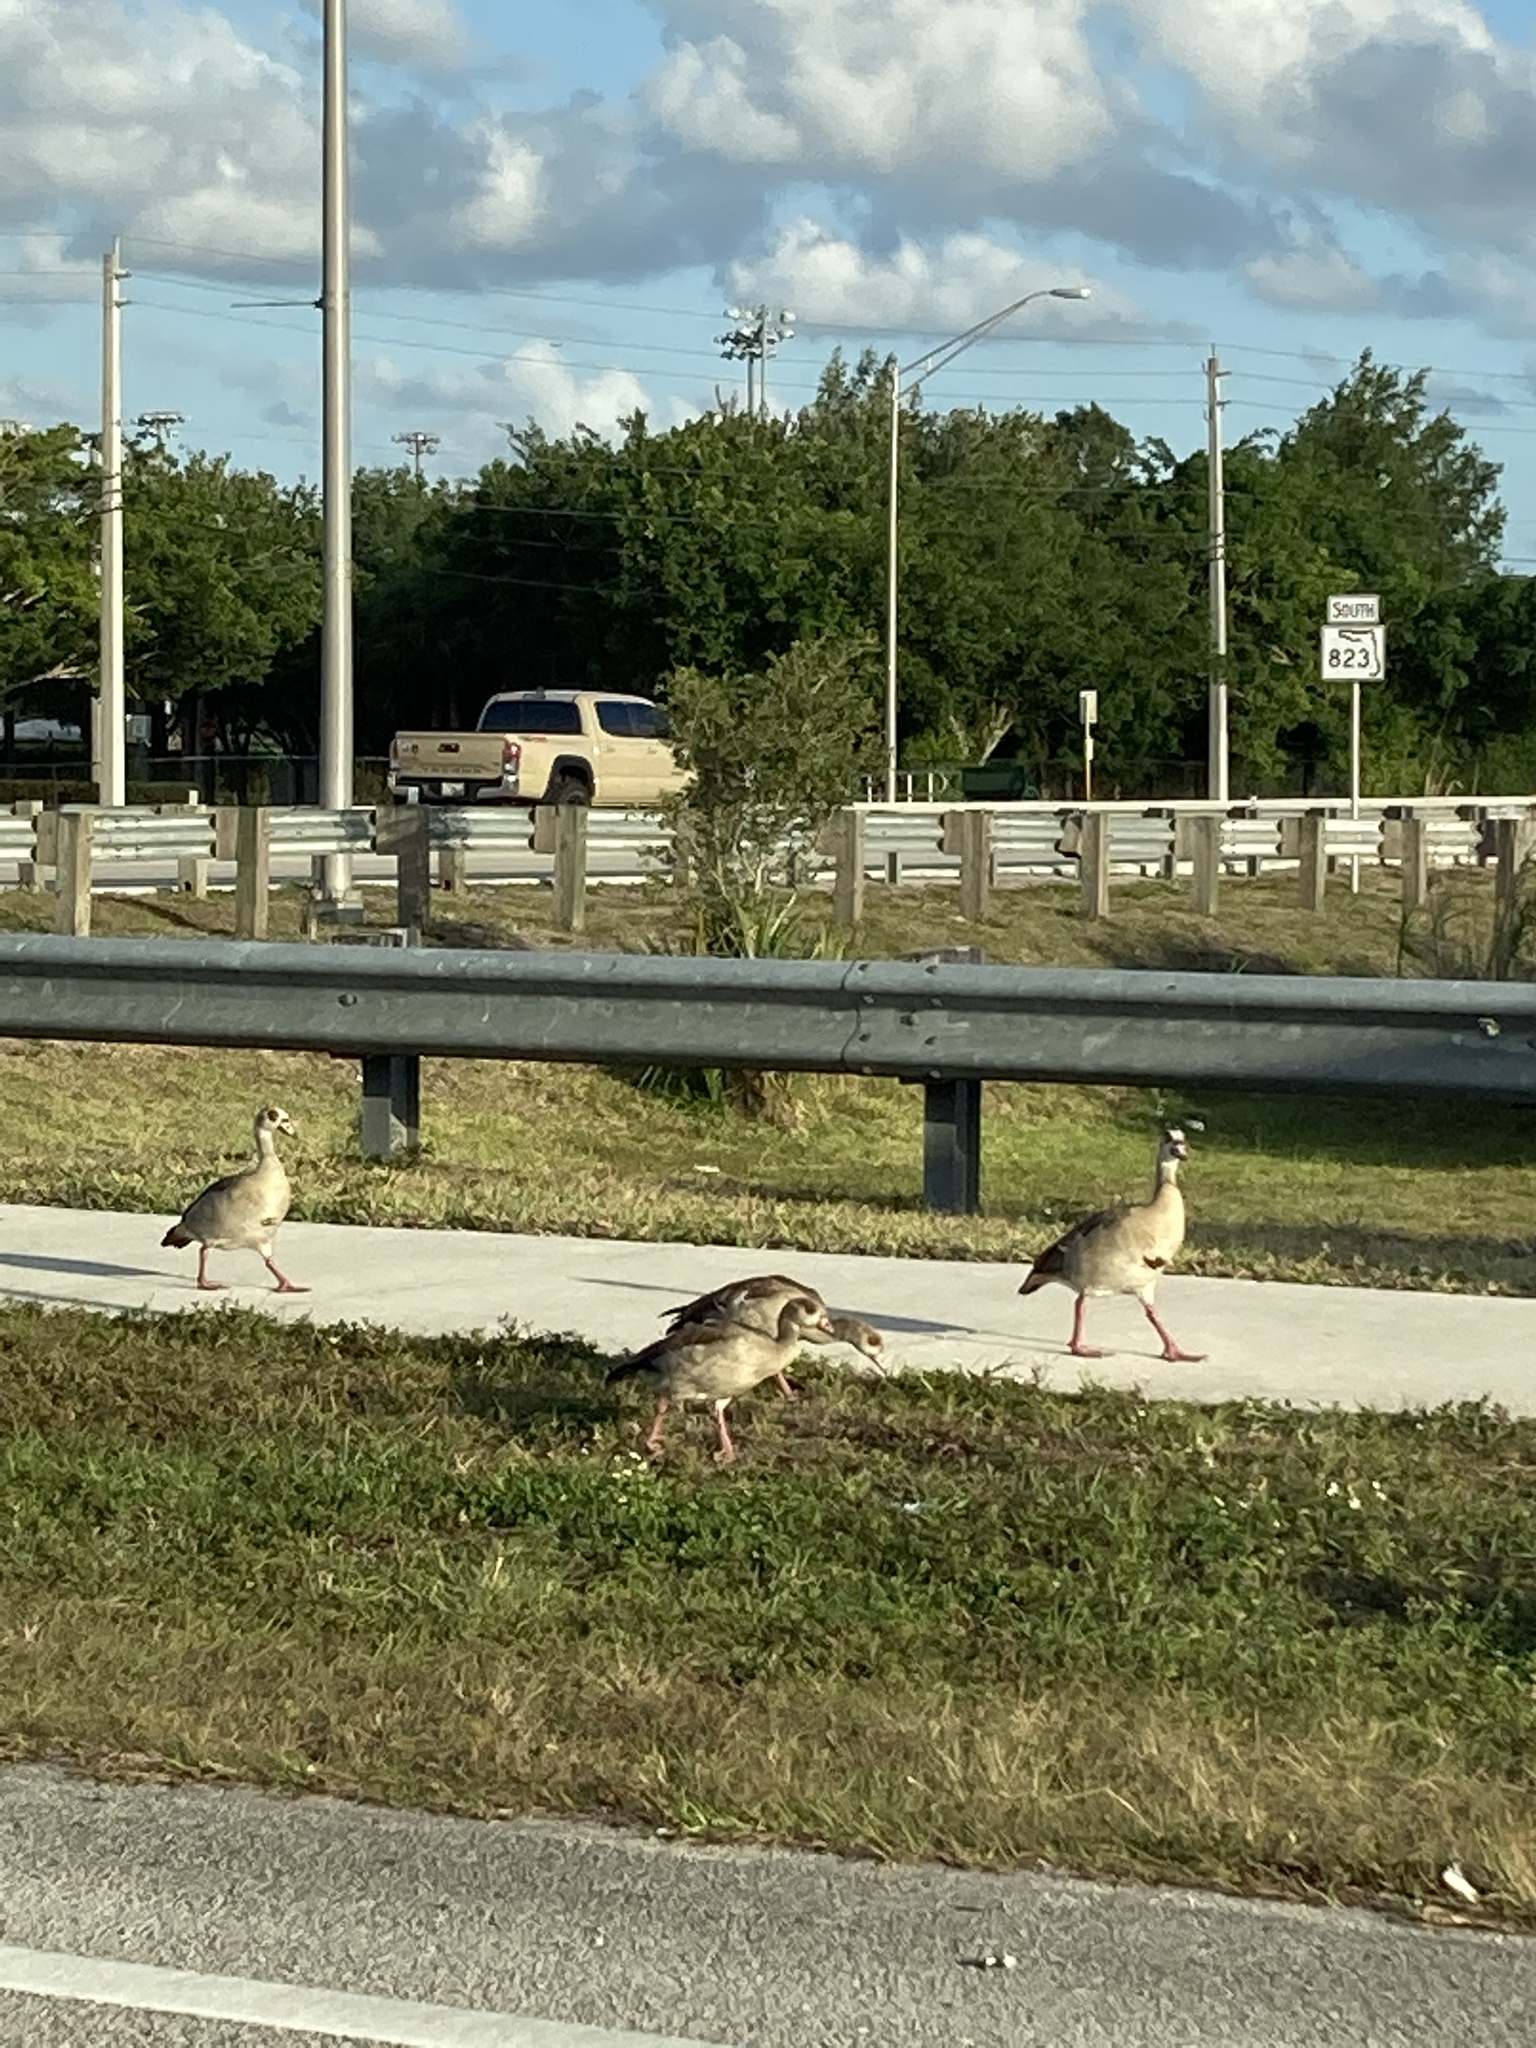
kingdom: Animalia
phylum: Chordata
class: Aves
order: Anseriformes
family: Anatidae
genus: Alopochen
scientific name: Alopochen aegyptiaca
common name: Egyptian goose
